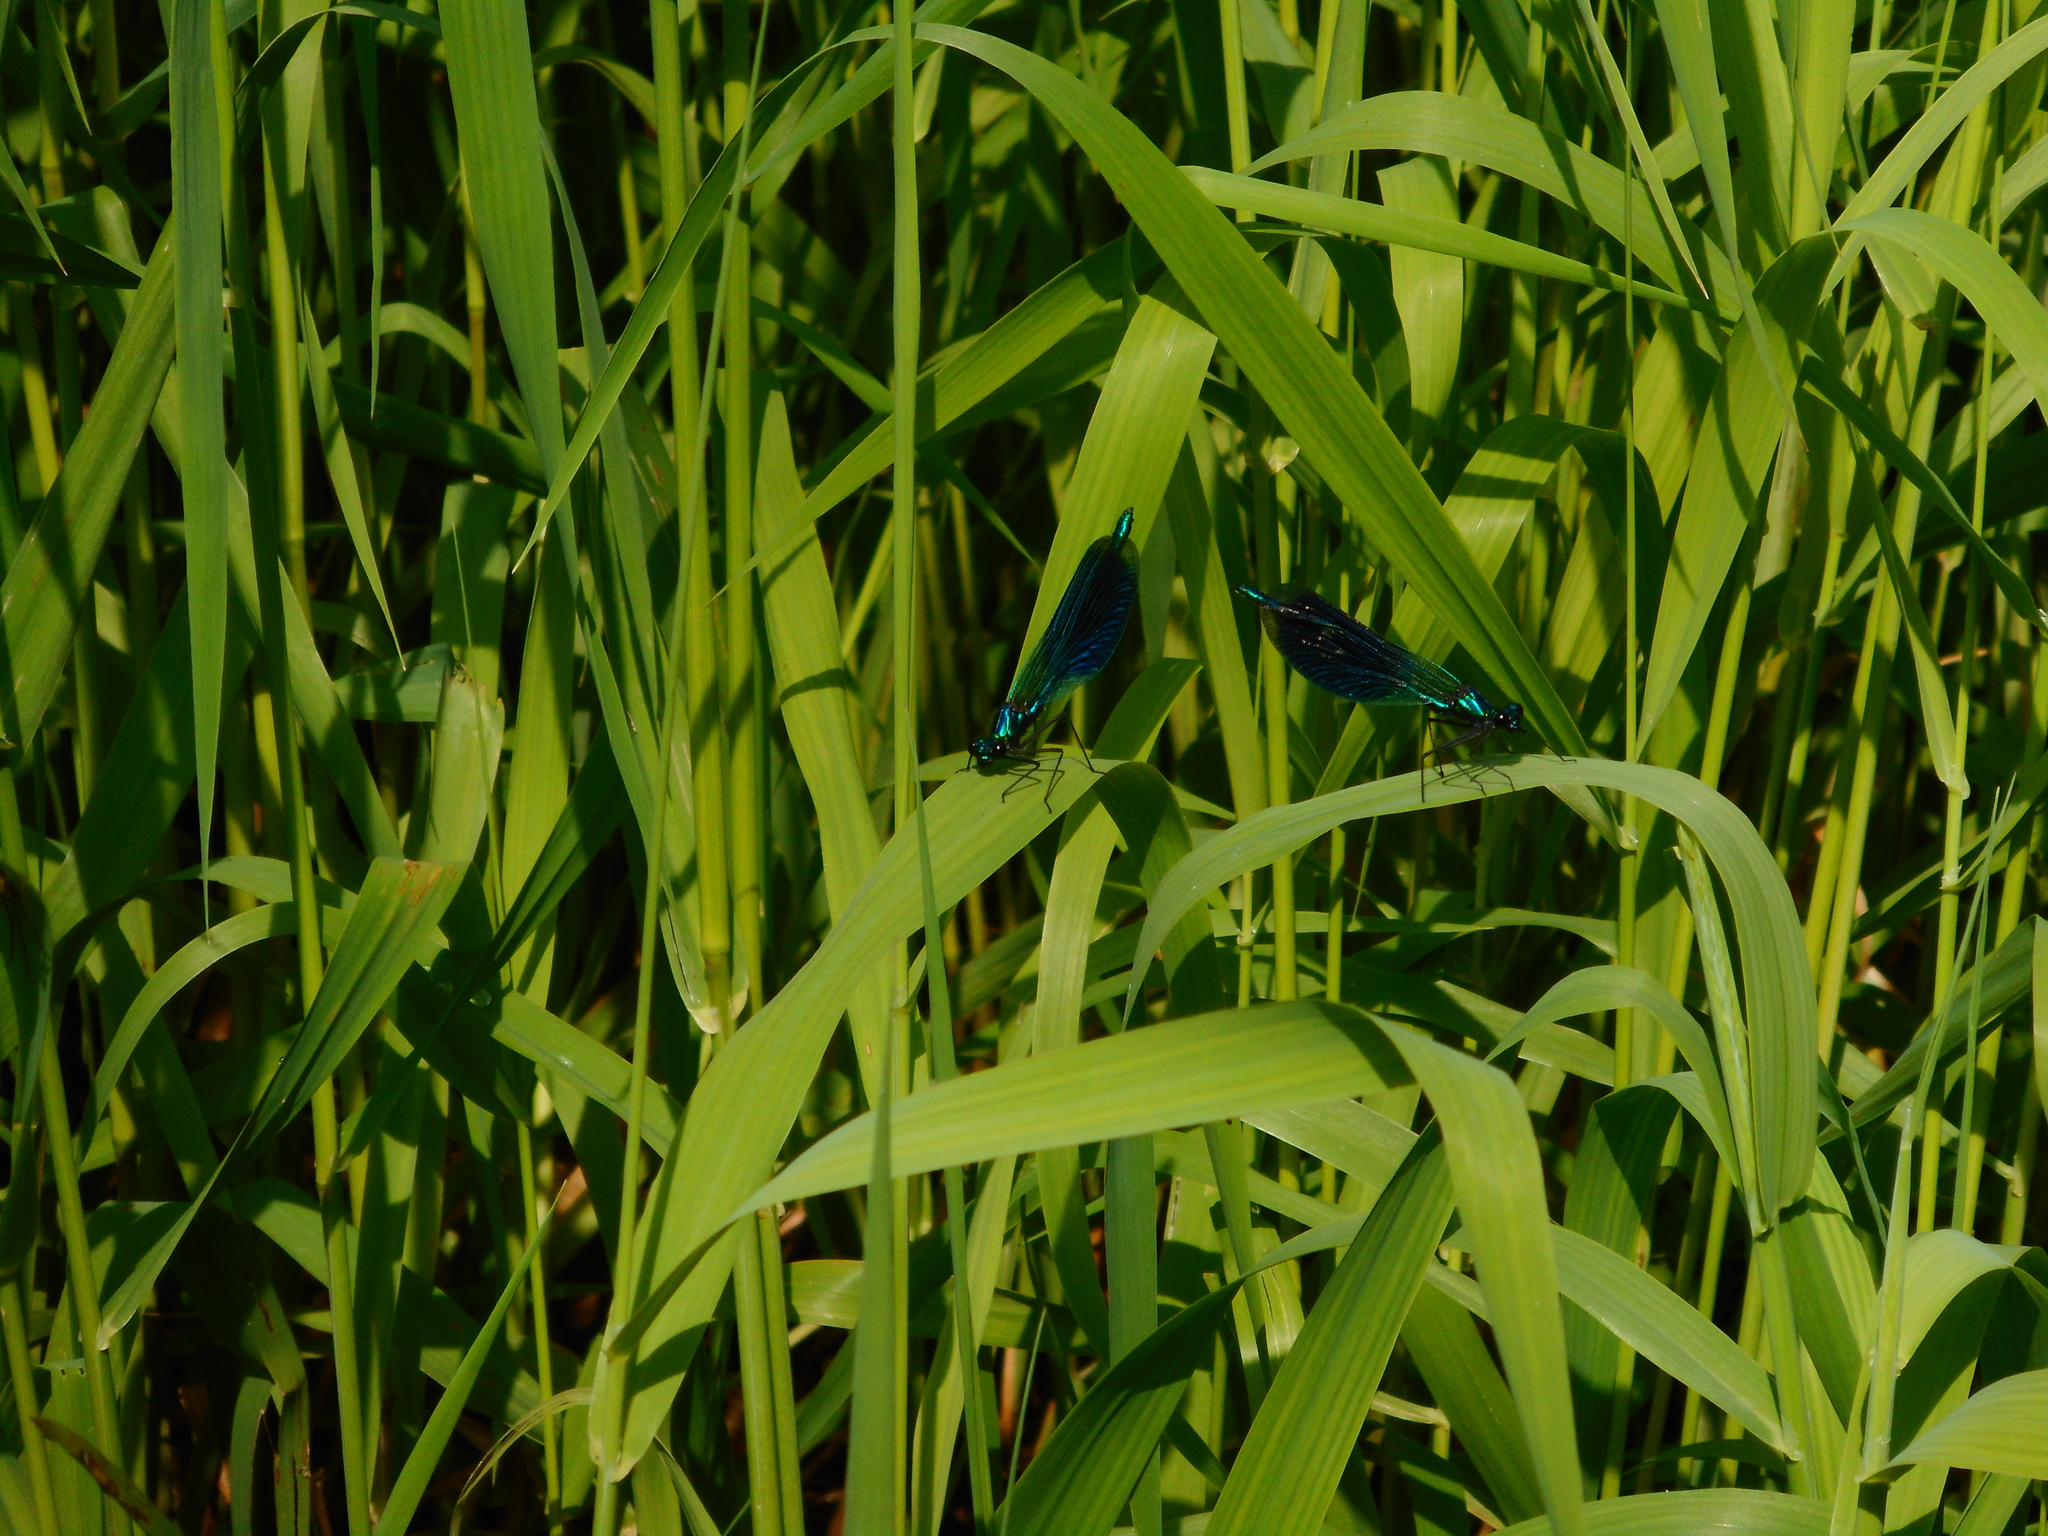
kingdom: Animalia
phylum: Arthropoda
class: Insecta
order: Odonata
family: Calopterygidae
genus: Calopteryx
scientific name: Calopteryx splendens
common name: Banded demoiselle
